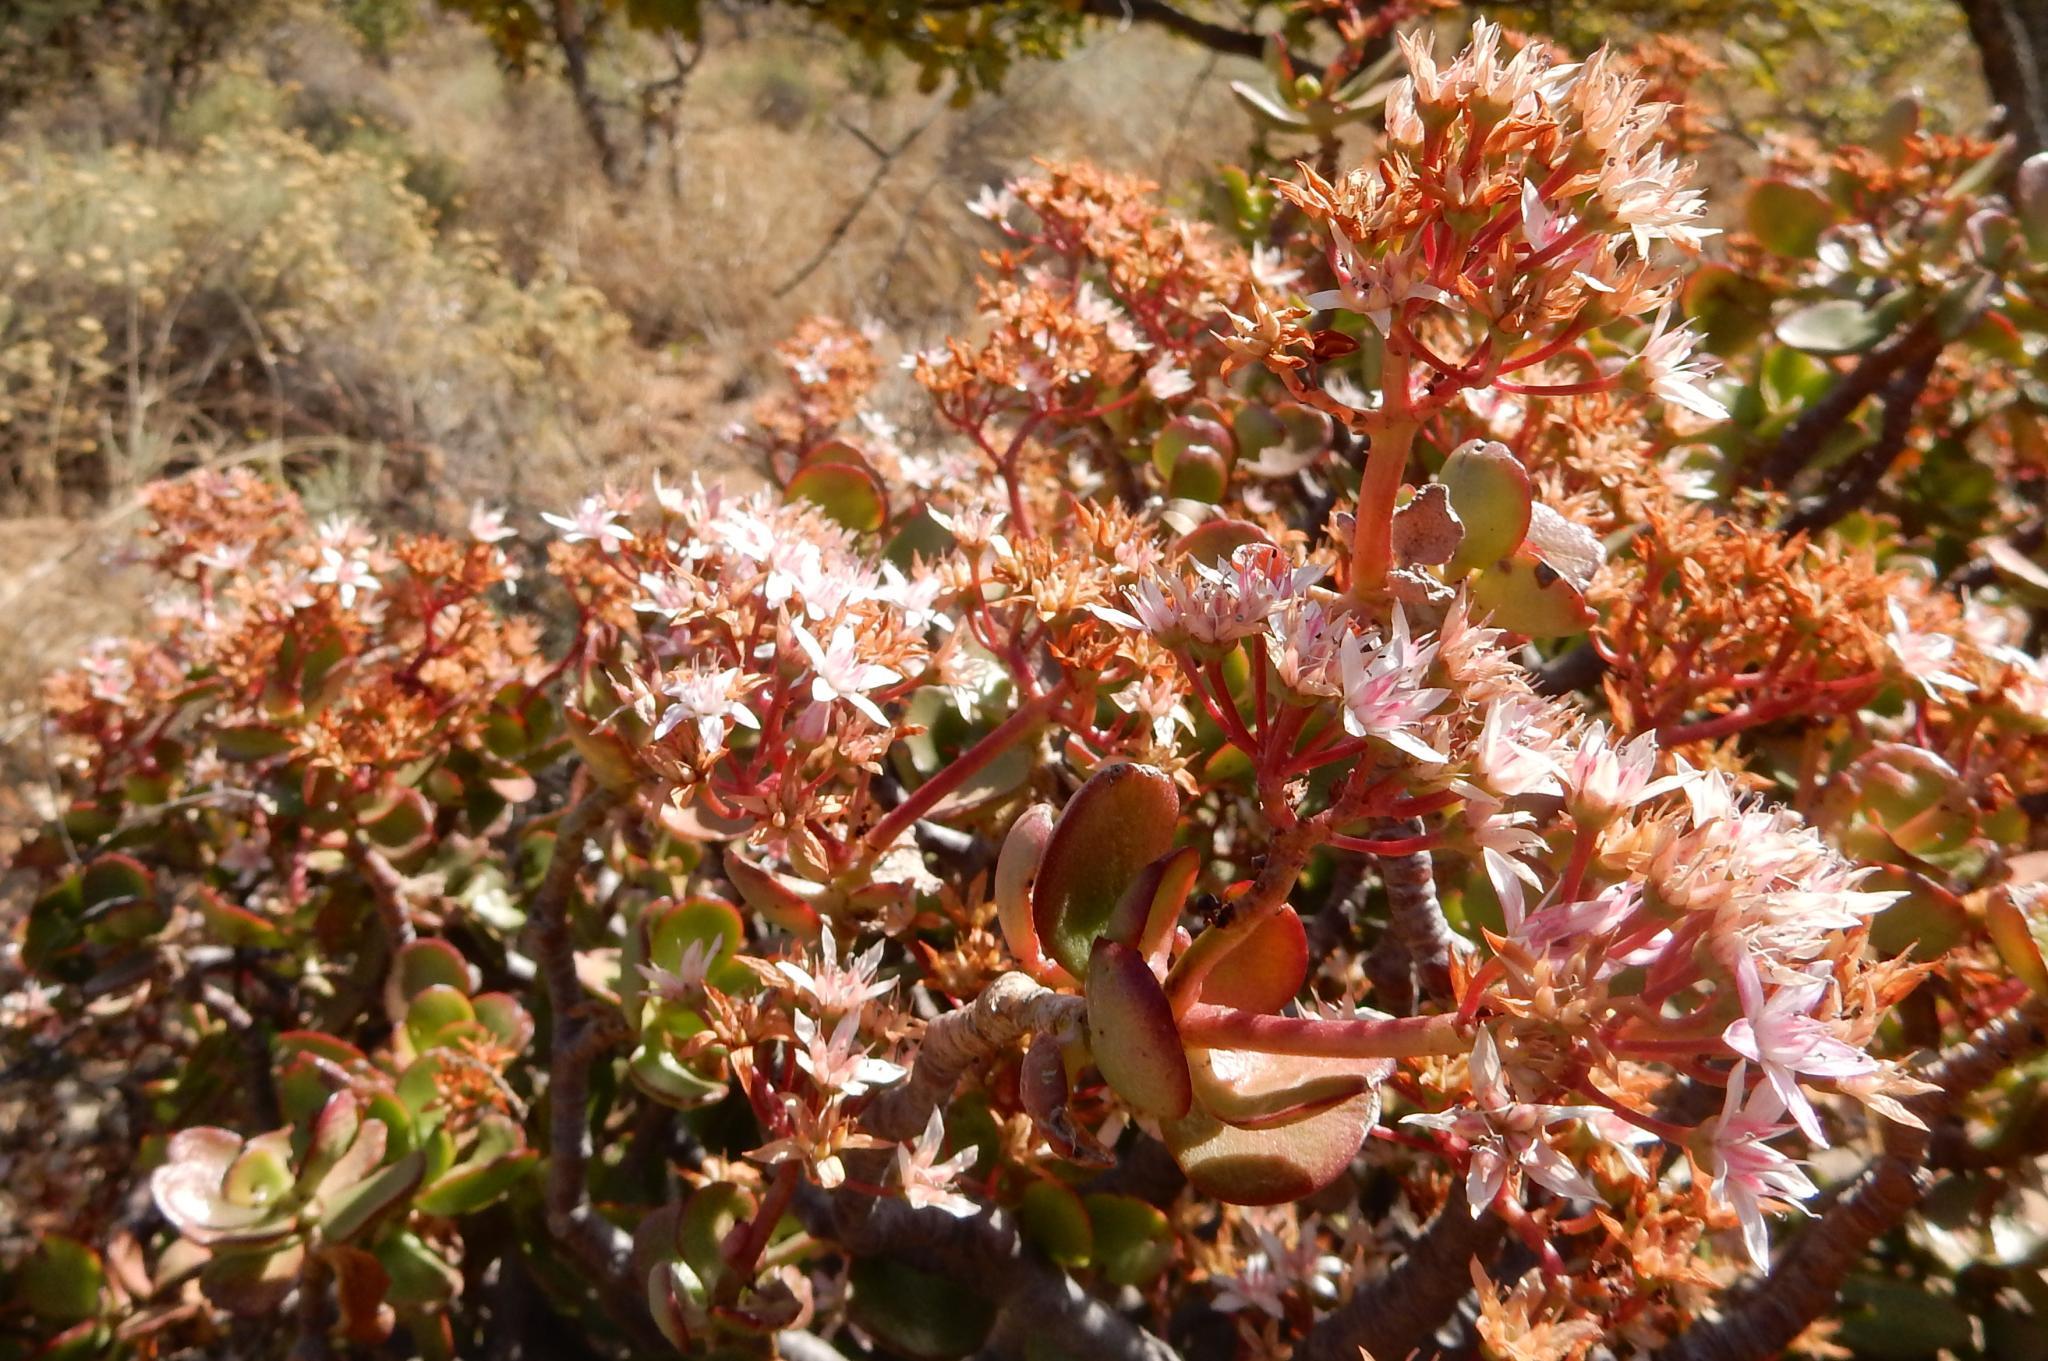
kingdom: Plantae
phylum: Tracheophyta
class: Magnoliopsida
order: Saxifragales
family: Crassulaceae
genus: Crassula
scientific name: Crassula ovata
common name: Jade plant
